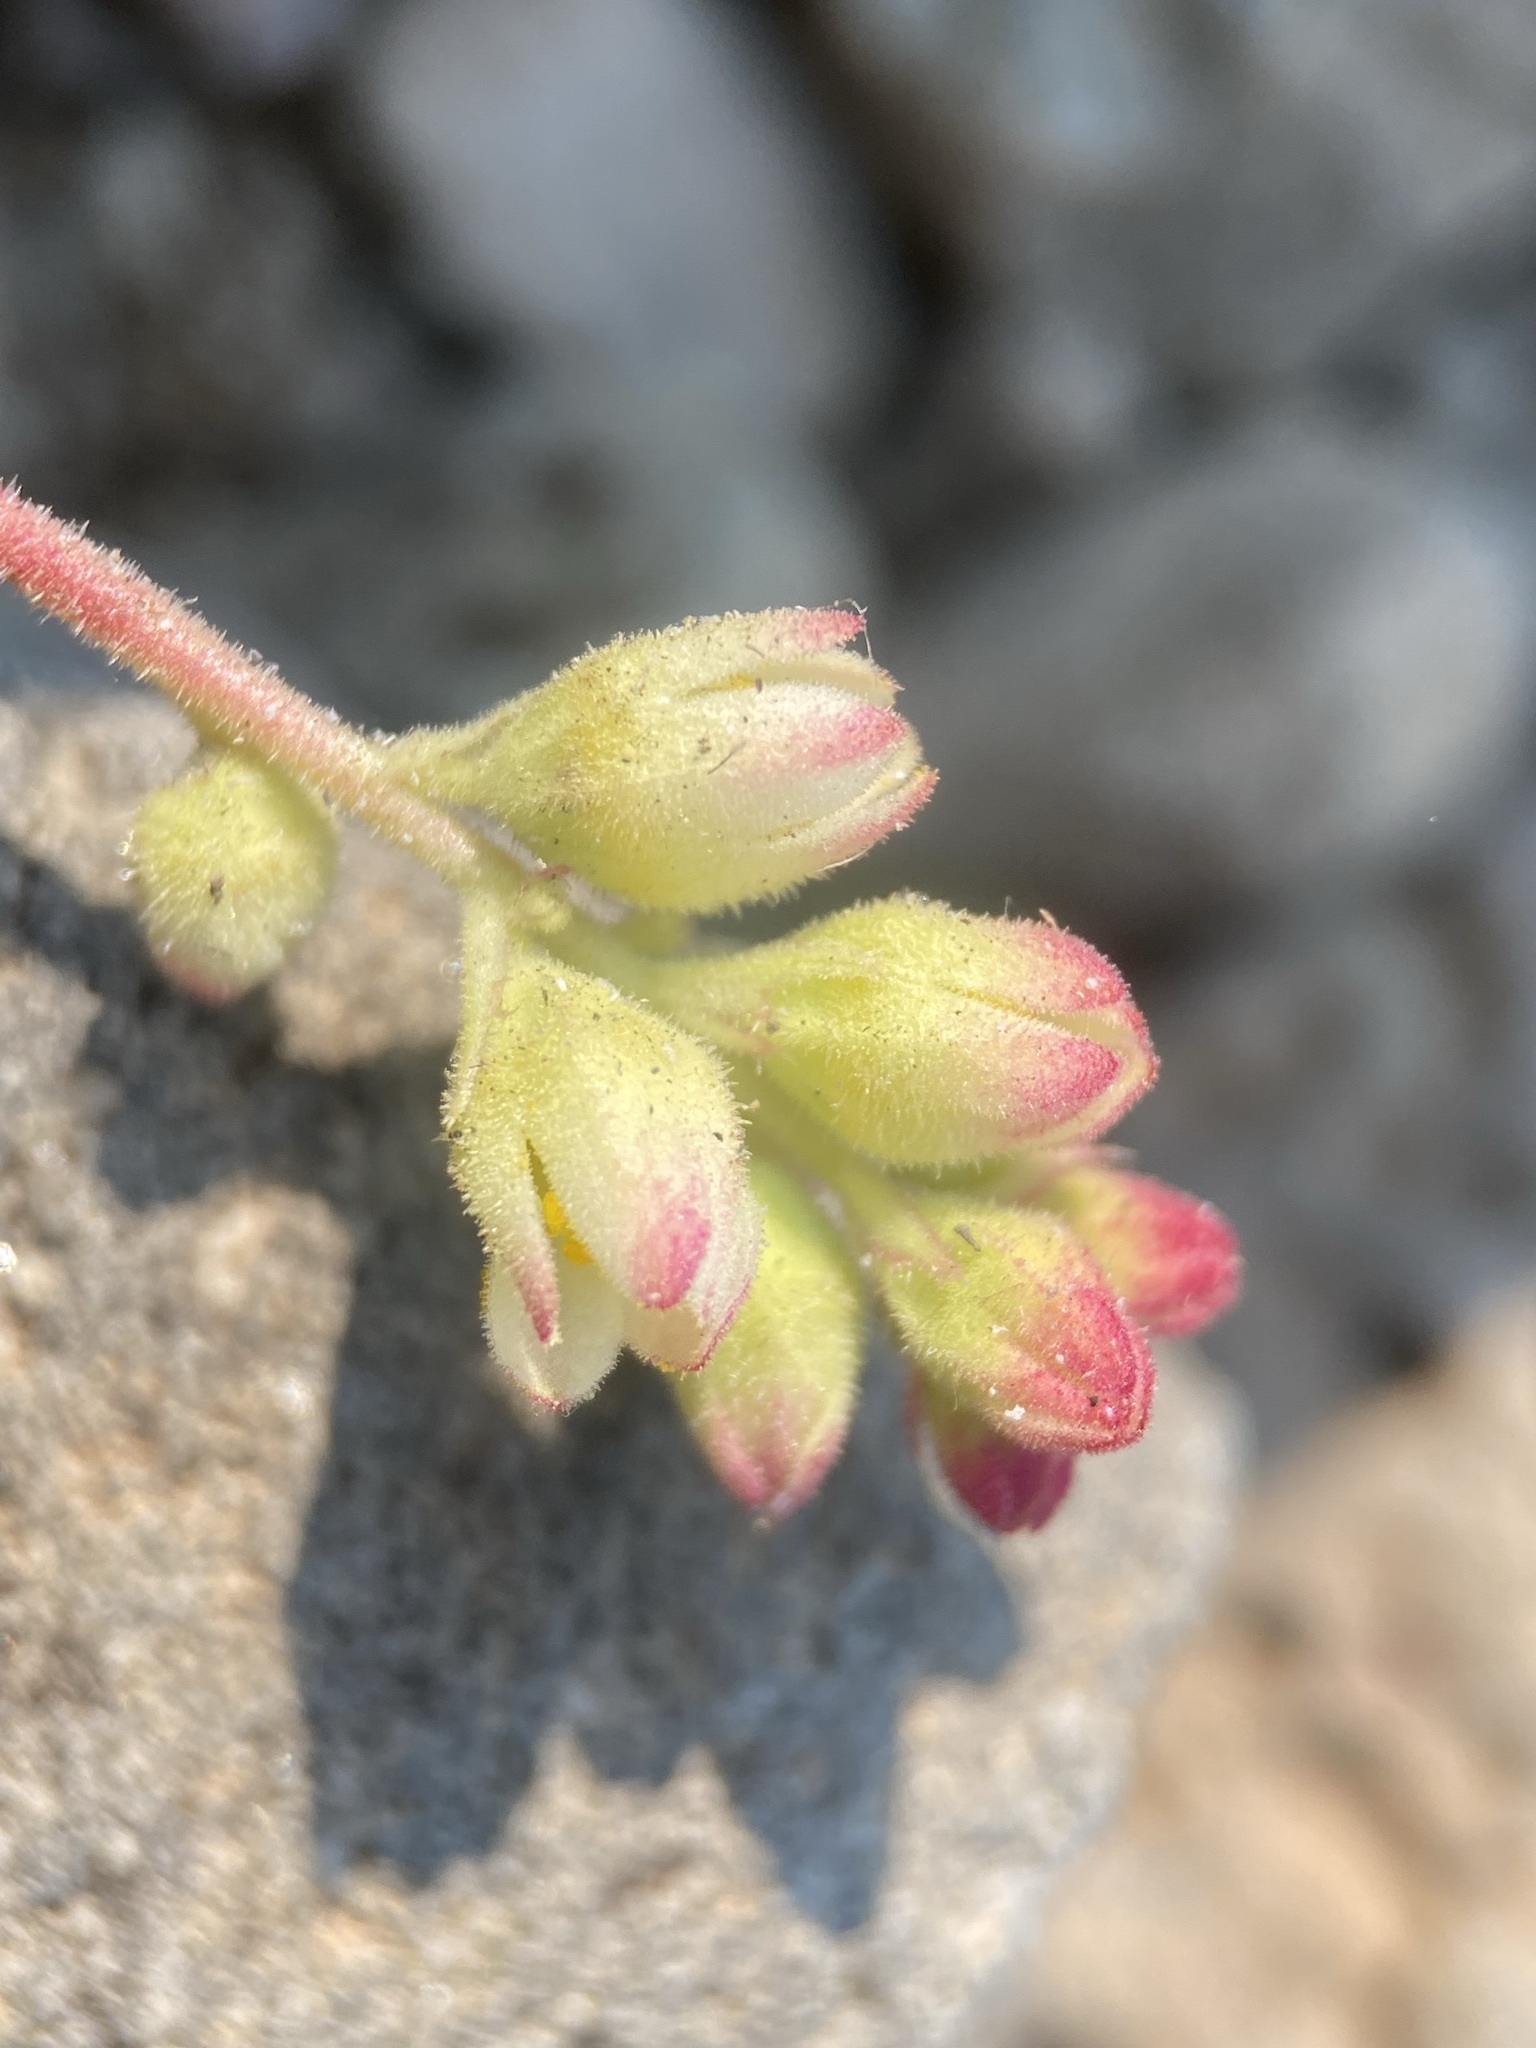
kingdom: Plantae
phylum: Tracheophyta
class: Magnoliopsida
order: Saxifragales
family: Saxifragaceae
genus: Heuchera
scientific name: Heuchera cylindrica
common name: Mat alumroot
